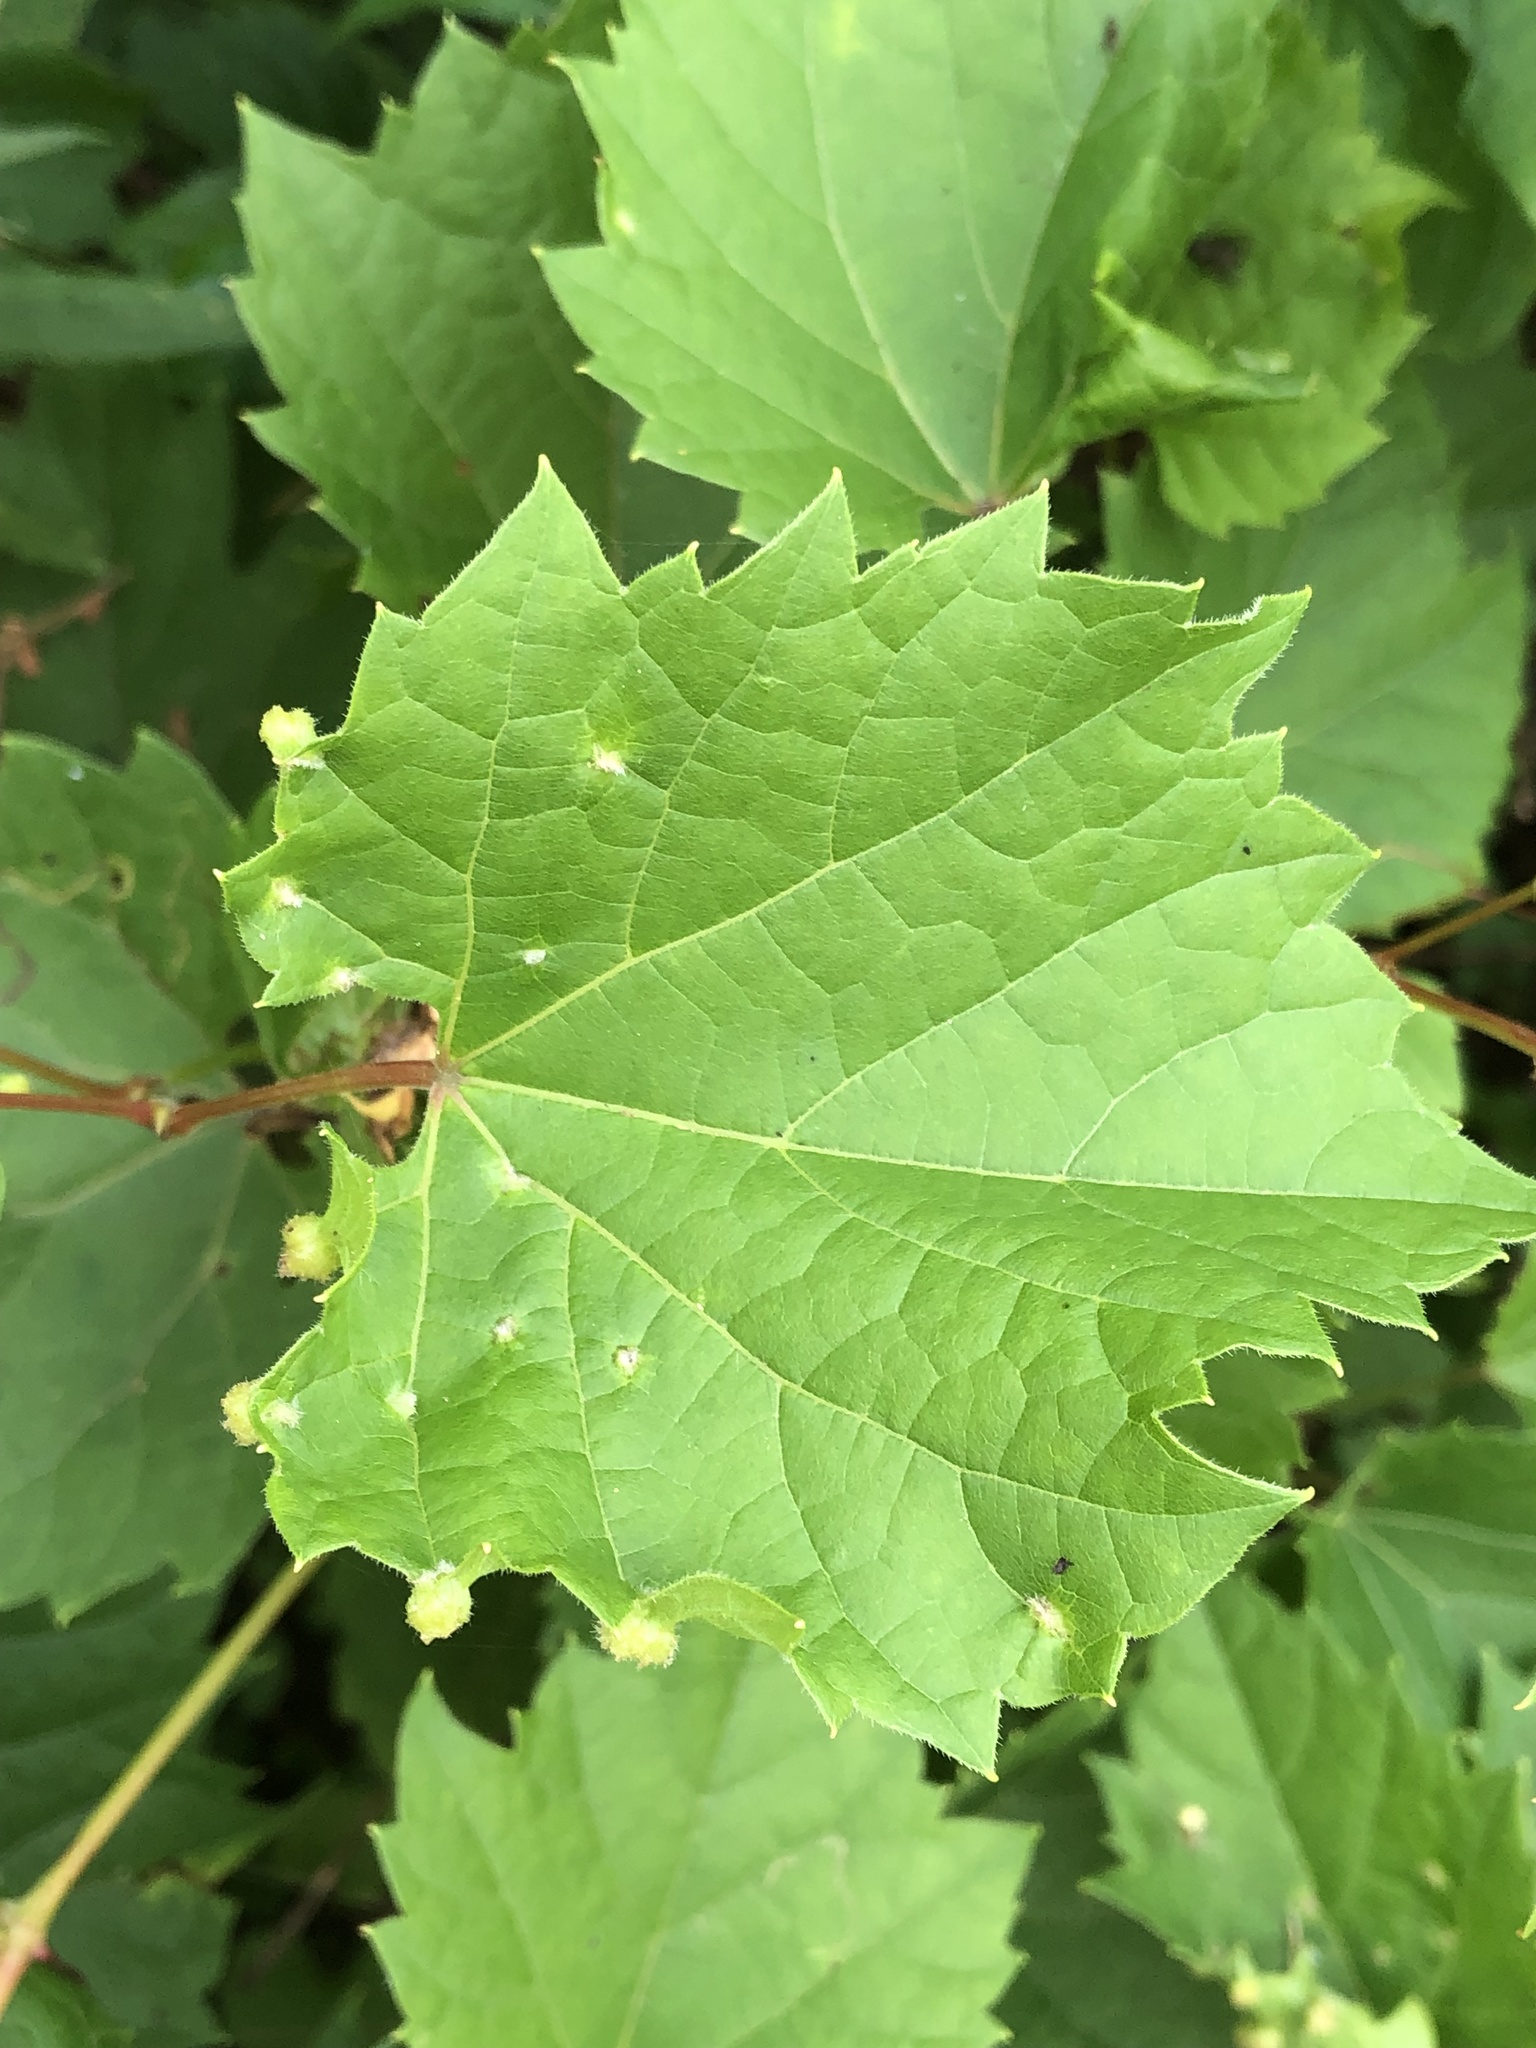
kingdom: Plantae
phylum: Tracheophyta
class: Magnoliopsida
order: Vitales
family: Vitaceae
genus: Vitis
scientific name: Vitis riparia
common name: Frost grape
